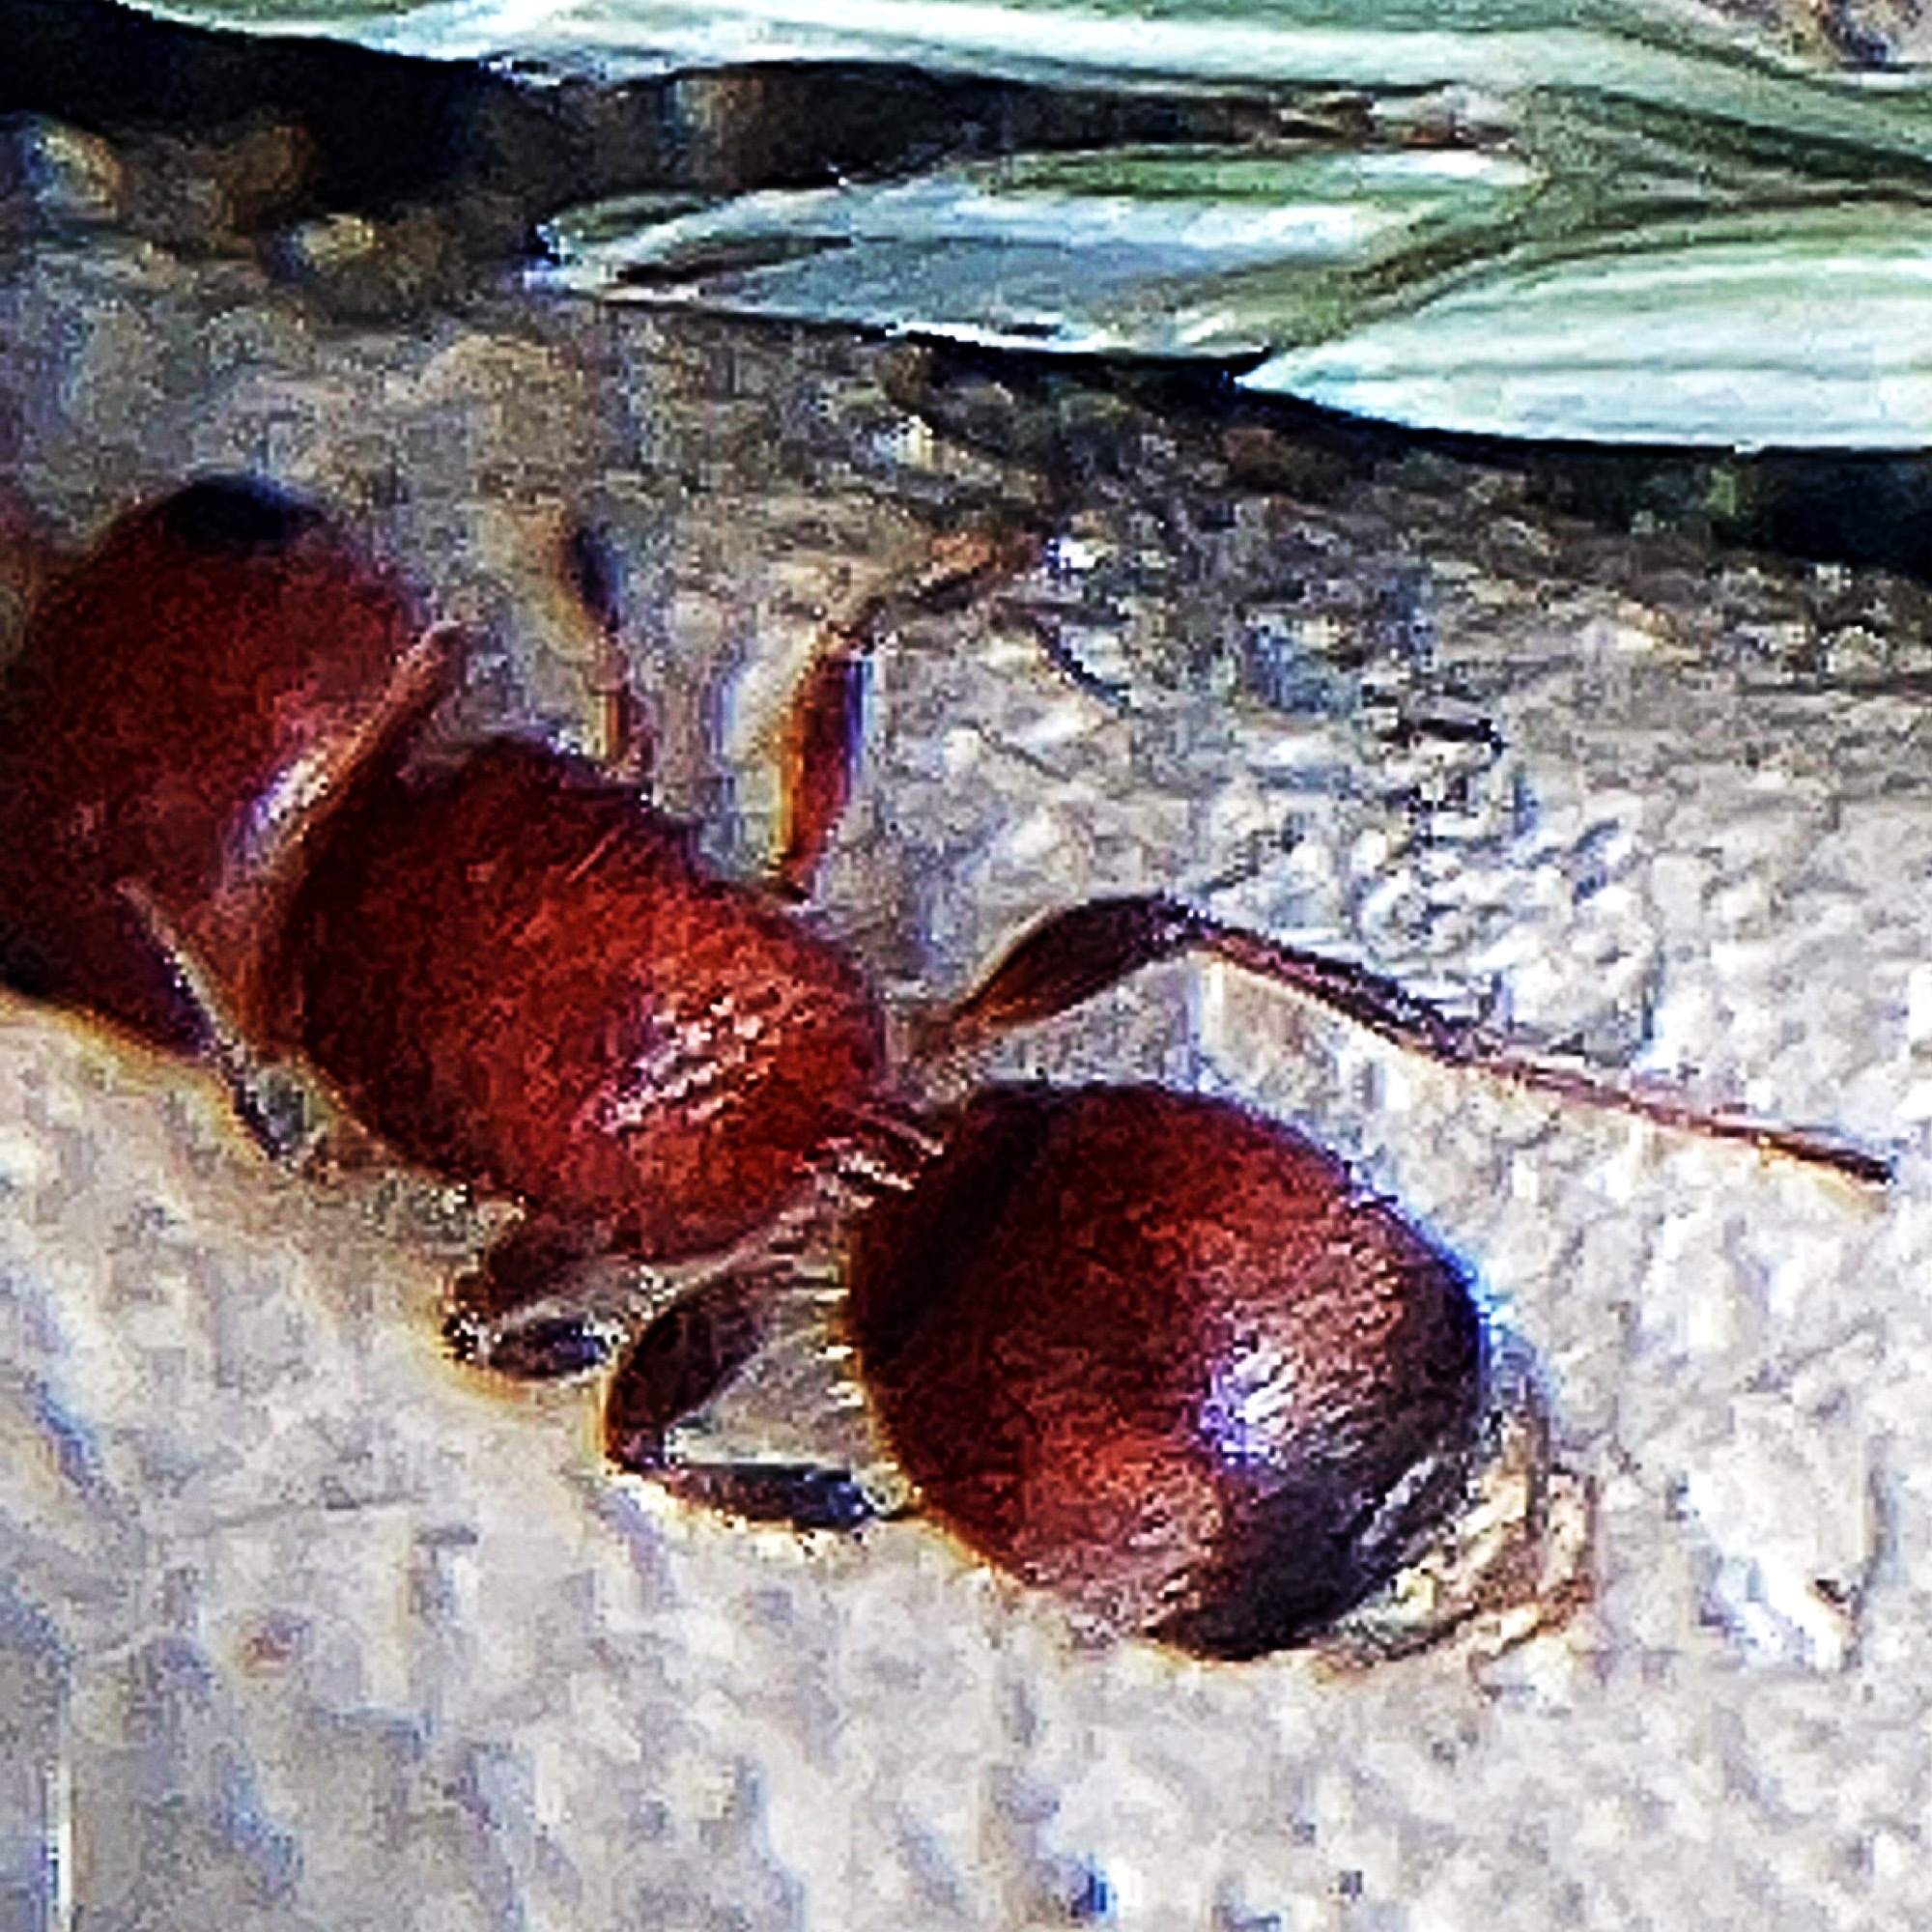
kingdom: Animalia
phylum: Arthropoda
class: Insecta
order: Hymenoptera
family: Mutillidae
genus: Pseudomethoca
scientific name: Pseudomethoca
